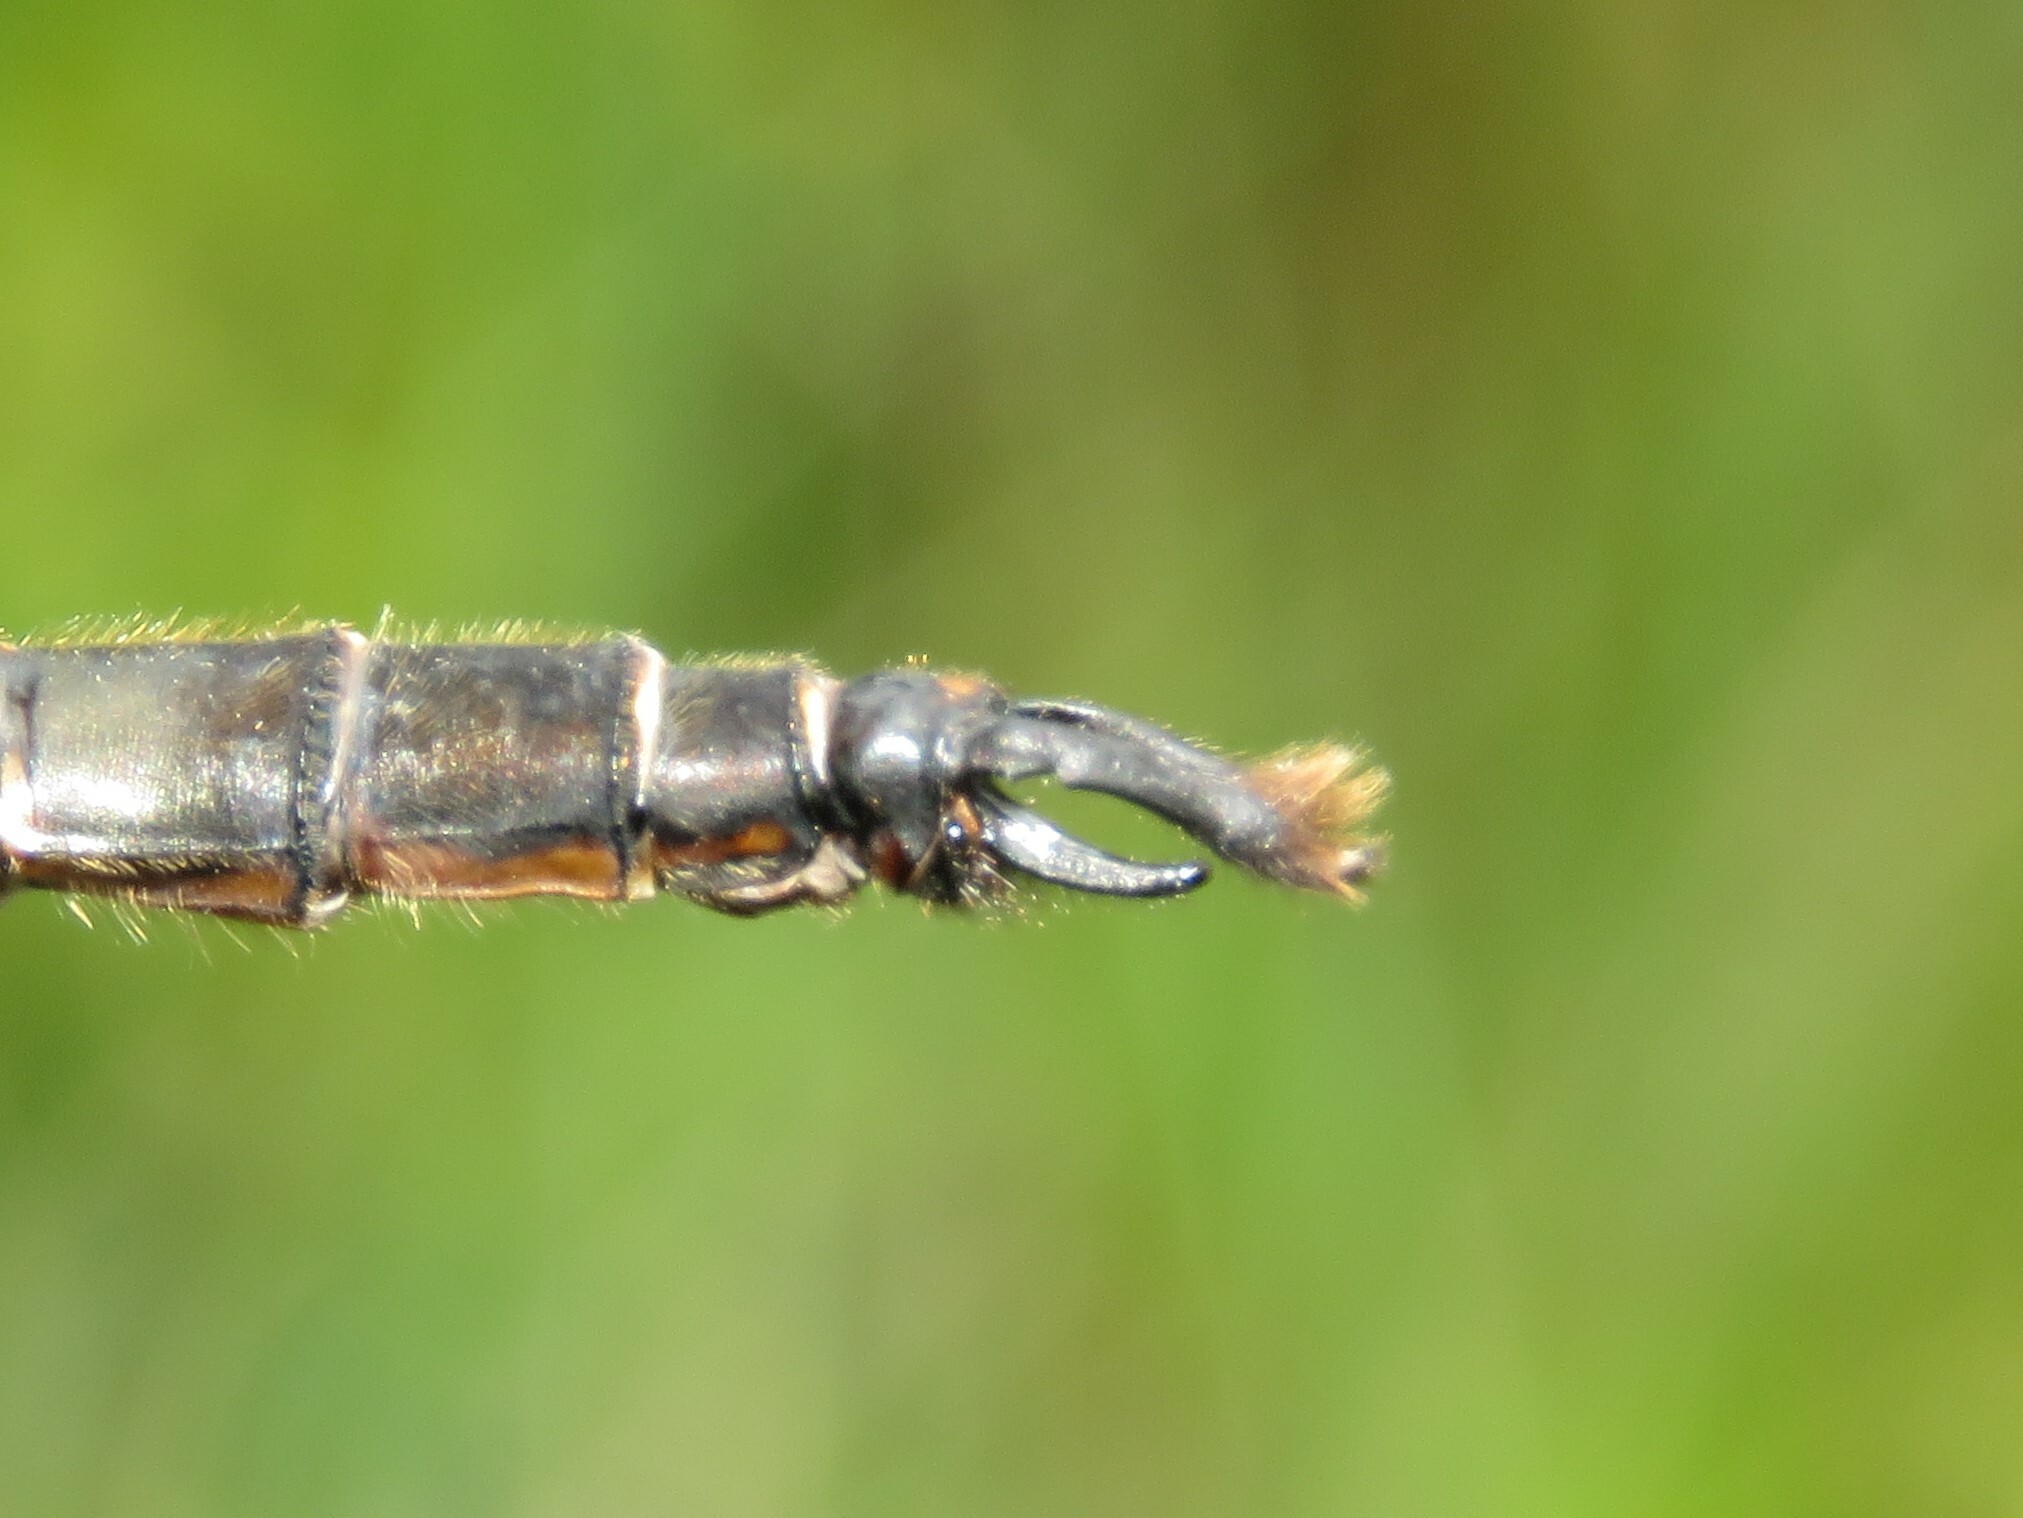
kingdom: Animalia
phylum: Arthropoda
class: Insecta
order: Odonata
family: Corduliidae
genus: Somatochlora
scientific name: Somatochlora walshii
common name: Brush-tipped emerald
